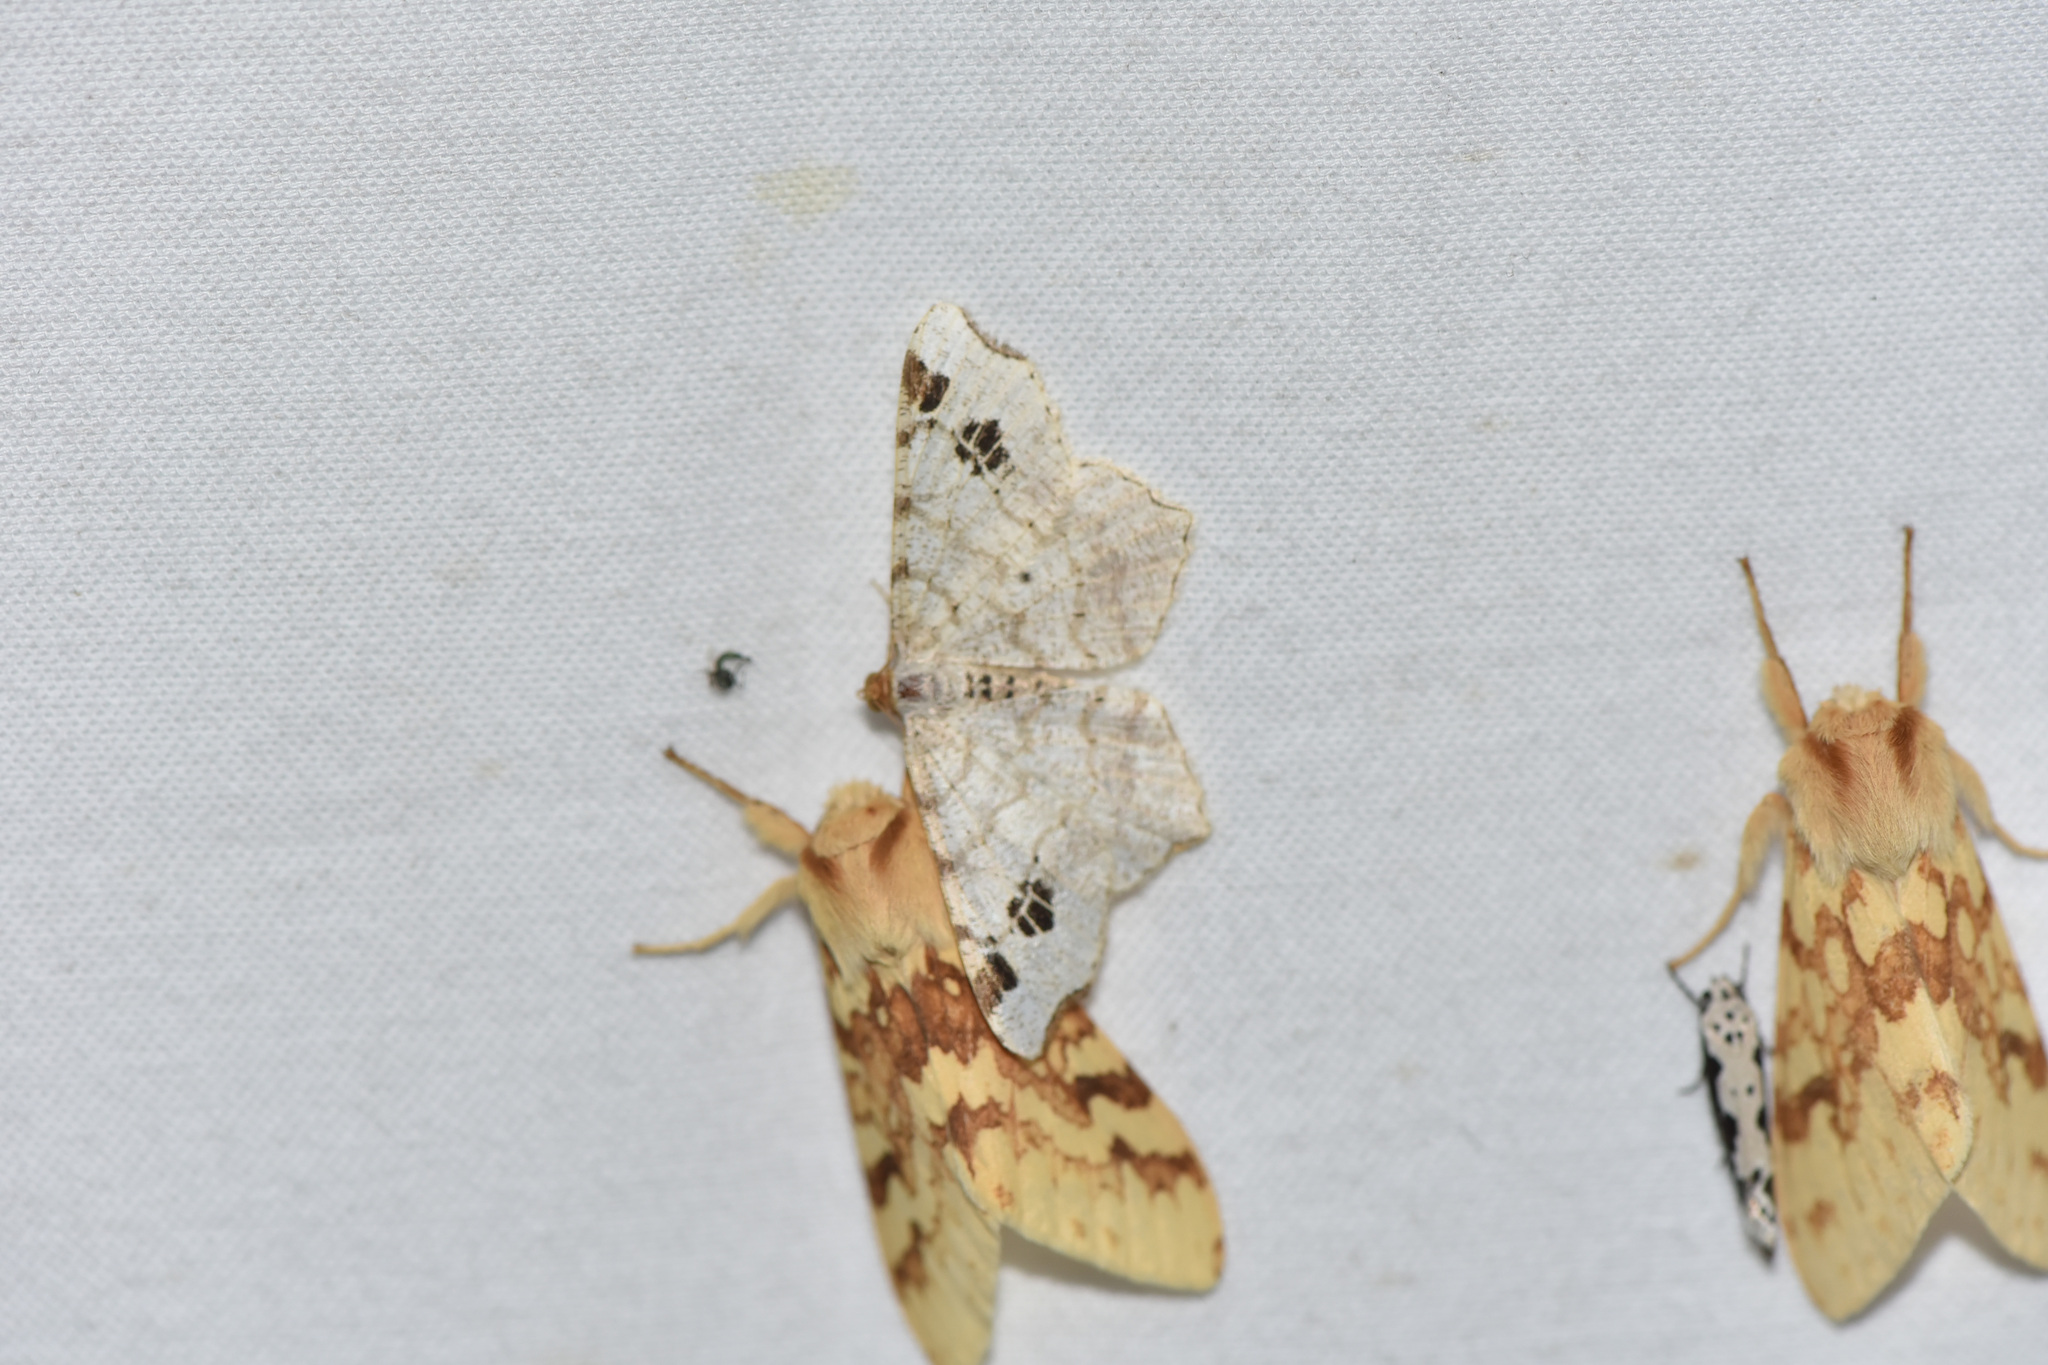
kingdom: Animalia
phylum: Arthropoda
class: Insecta
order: Lepidoptera
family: Geometridae
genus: Macaria
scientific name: Macaria ulsterata
